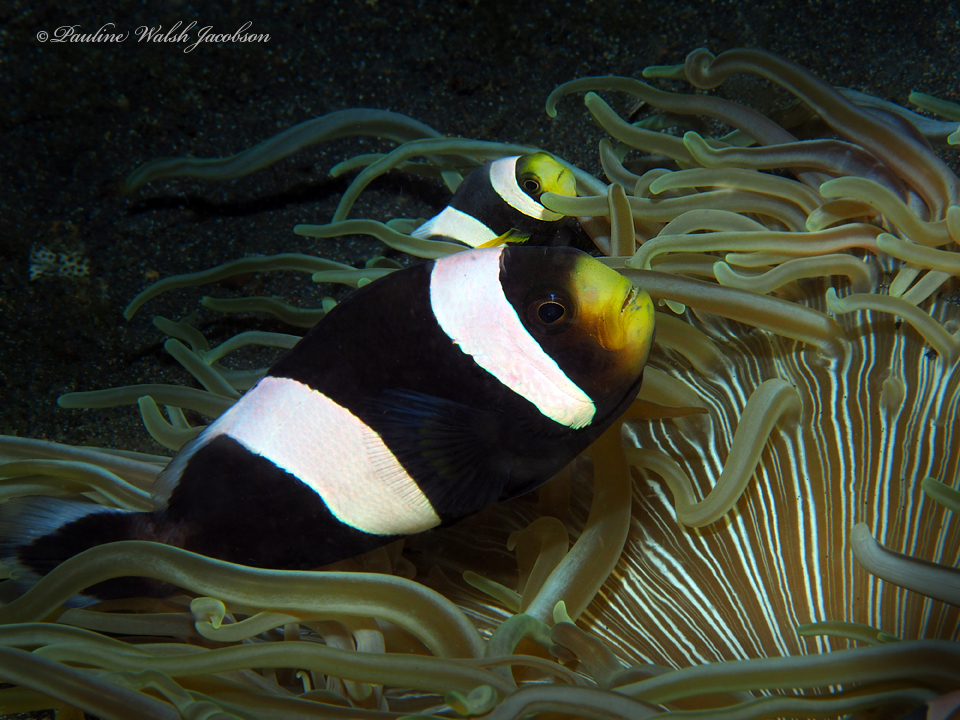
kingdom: Animalia
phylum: Chordata
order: Perciformes
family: Pomacentridae
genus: Amphiprion
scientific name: Amphiprion polymnus
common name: Saddleback anemonefish
